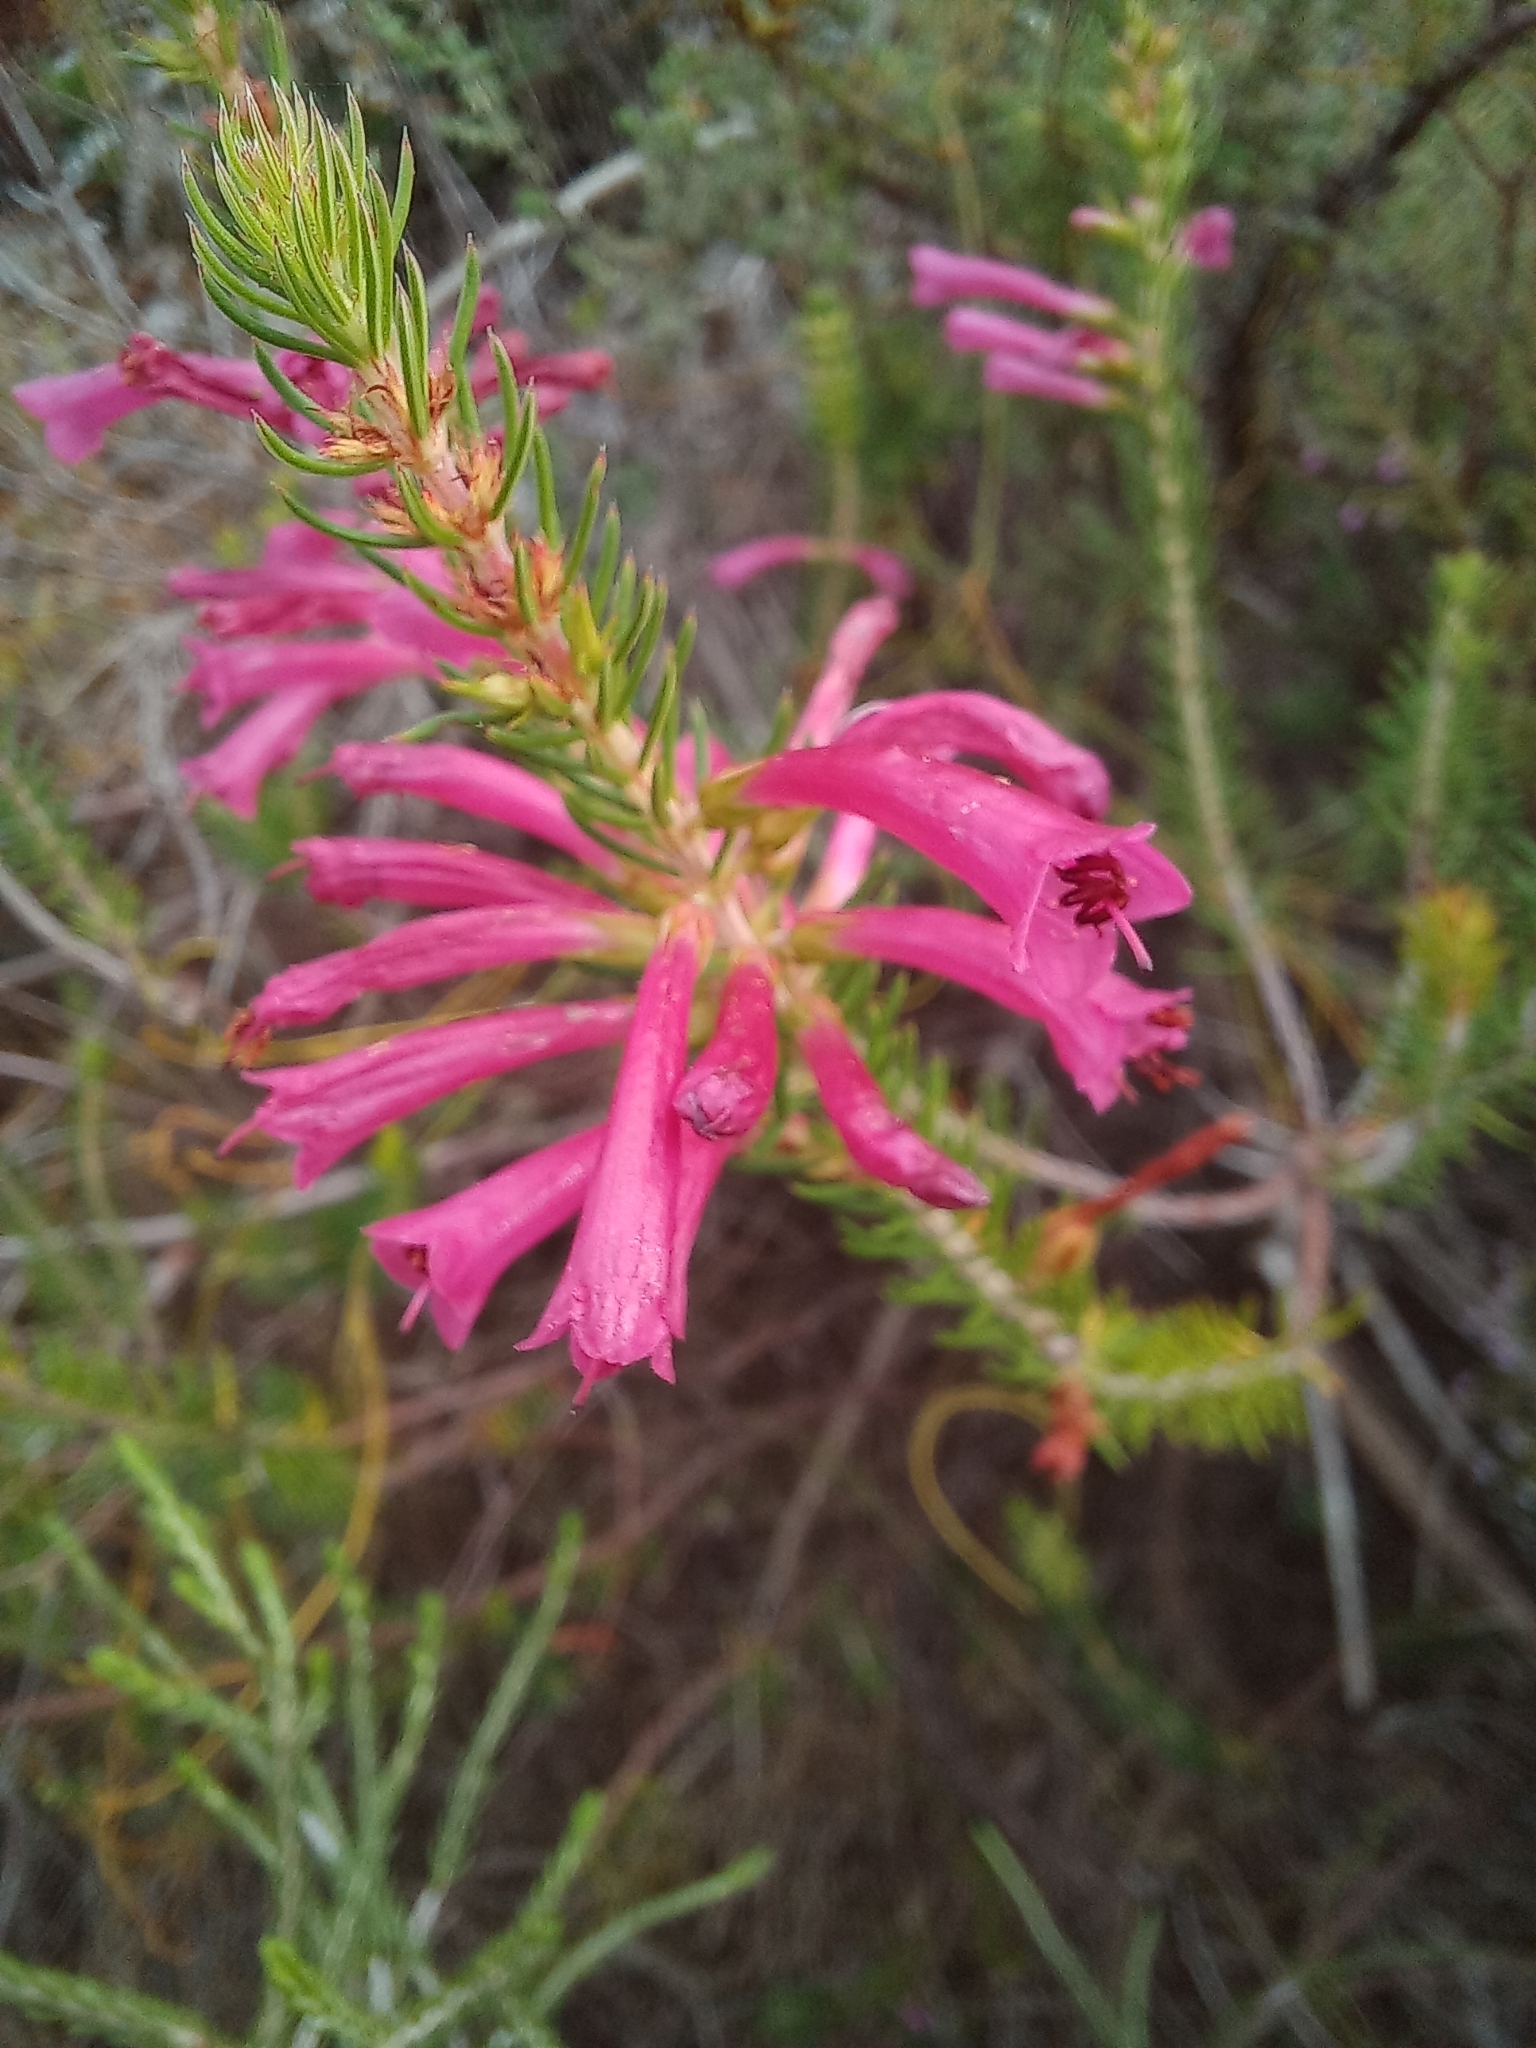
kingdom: Plantae
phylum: Tracheophyta
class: Magnoliopsida
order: Ericales
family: Ericaceae
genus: Erica
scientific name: Erica abietina
